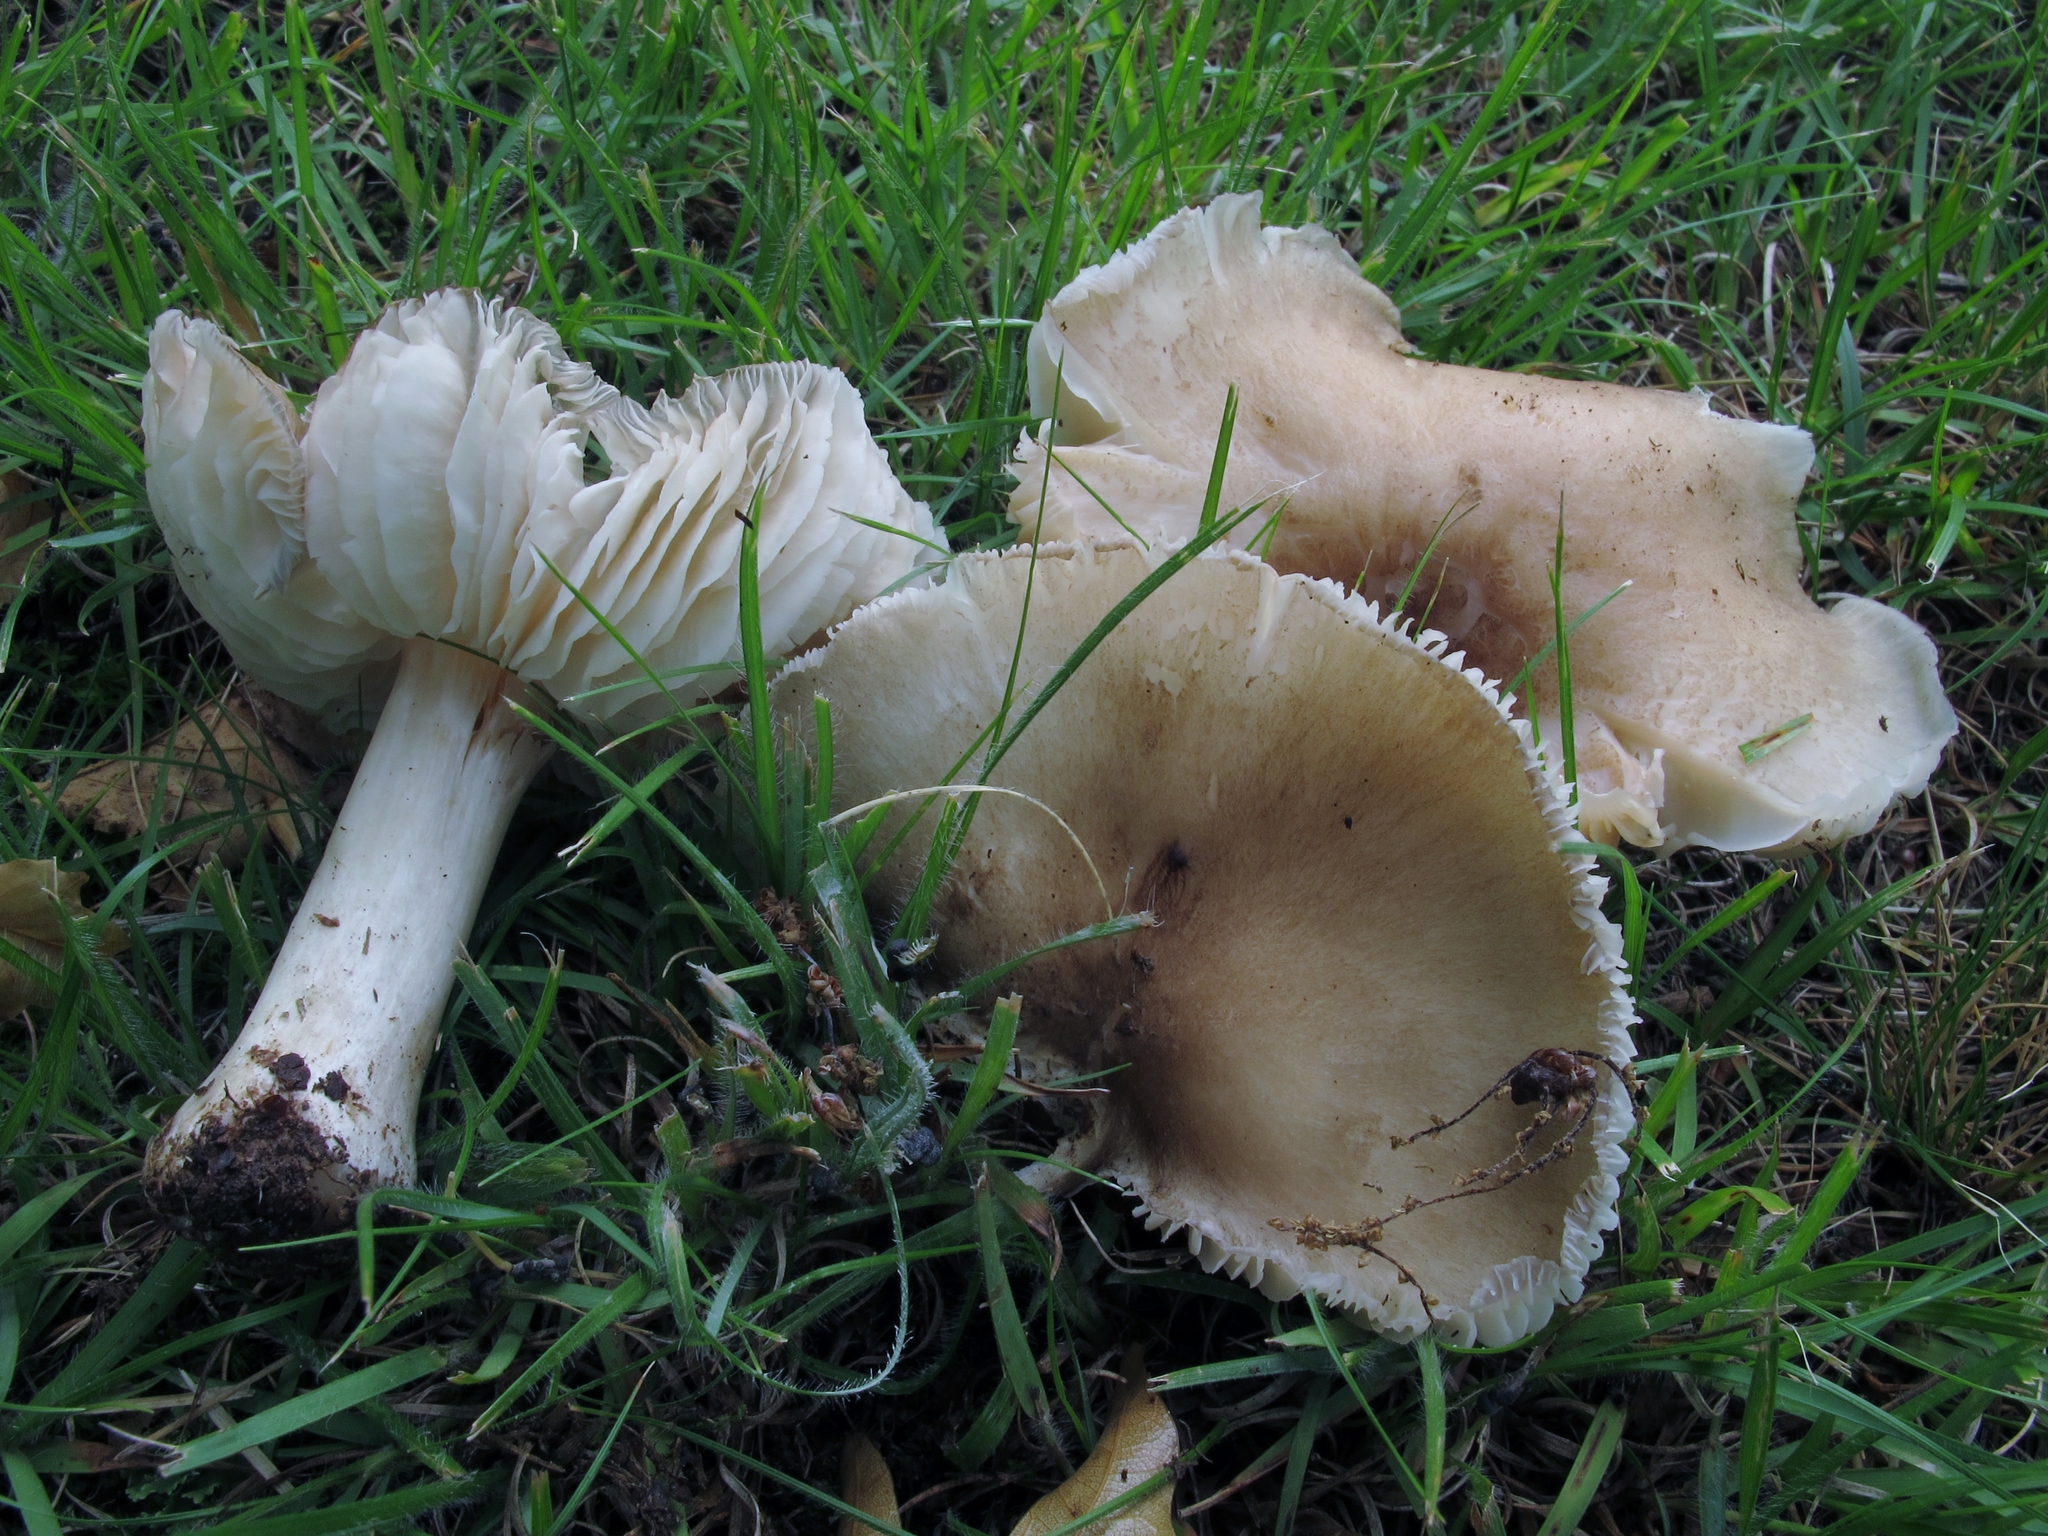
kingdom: Fungi
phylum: Basidiomycota
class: Agaricomycetes
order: Agaricales
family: Tricholomataceae
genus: Megacollybia
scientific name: Megacollybia rodmanii
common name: Eastern american platterful mushroom
